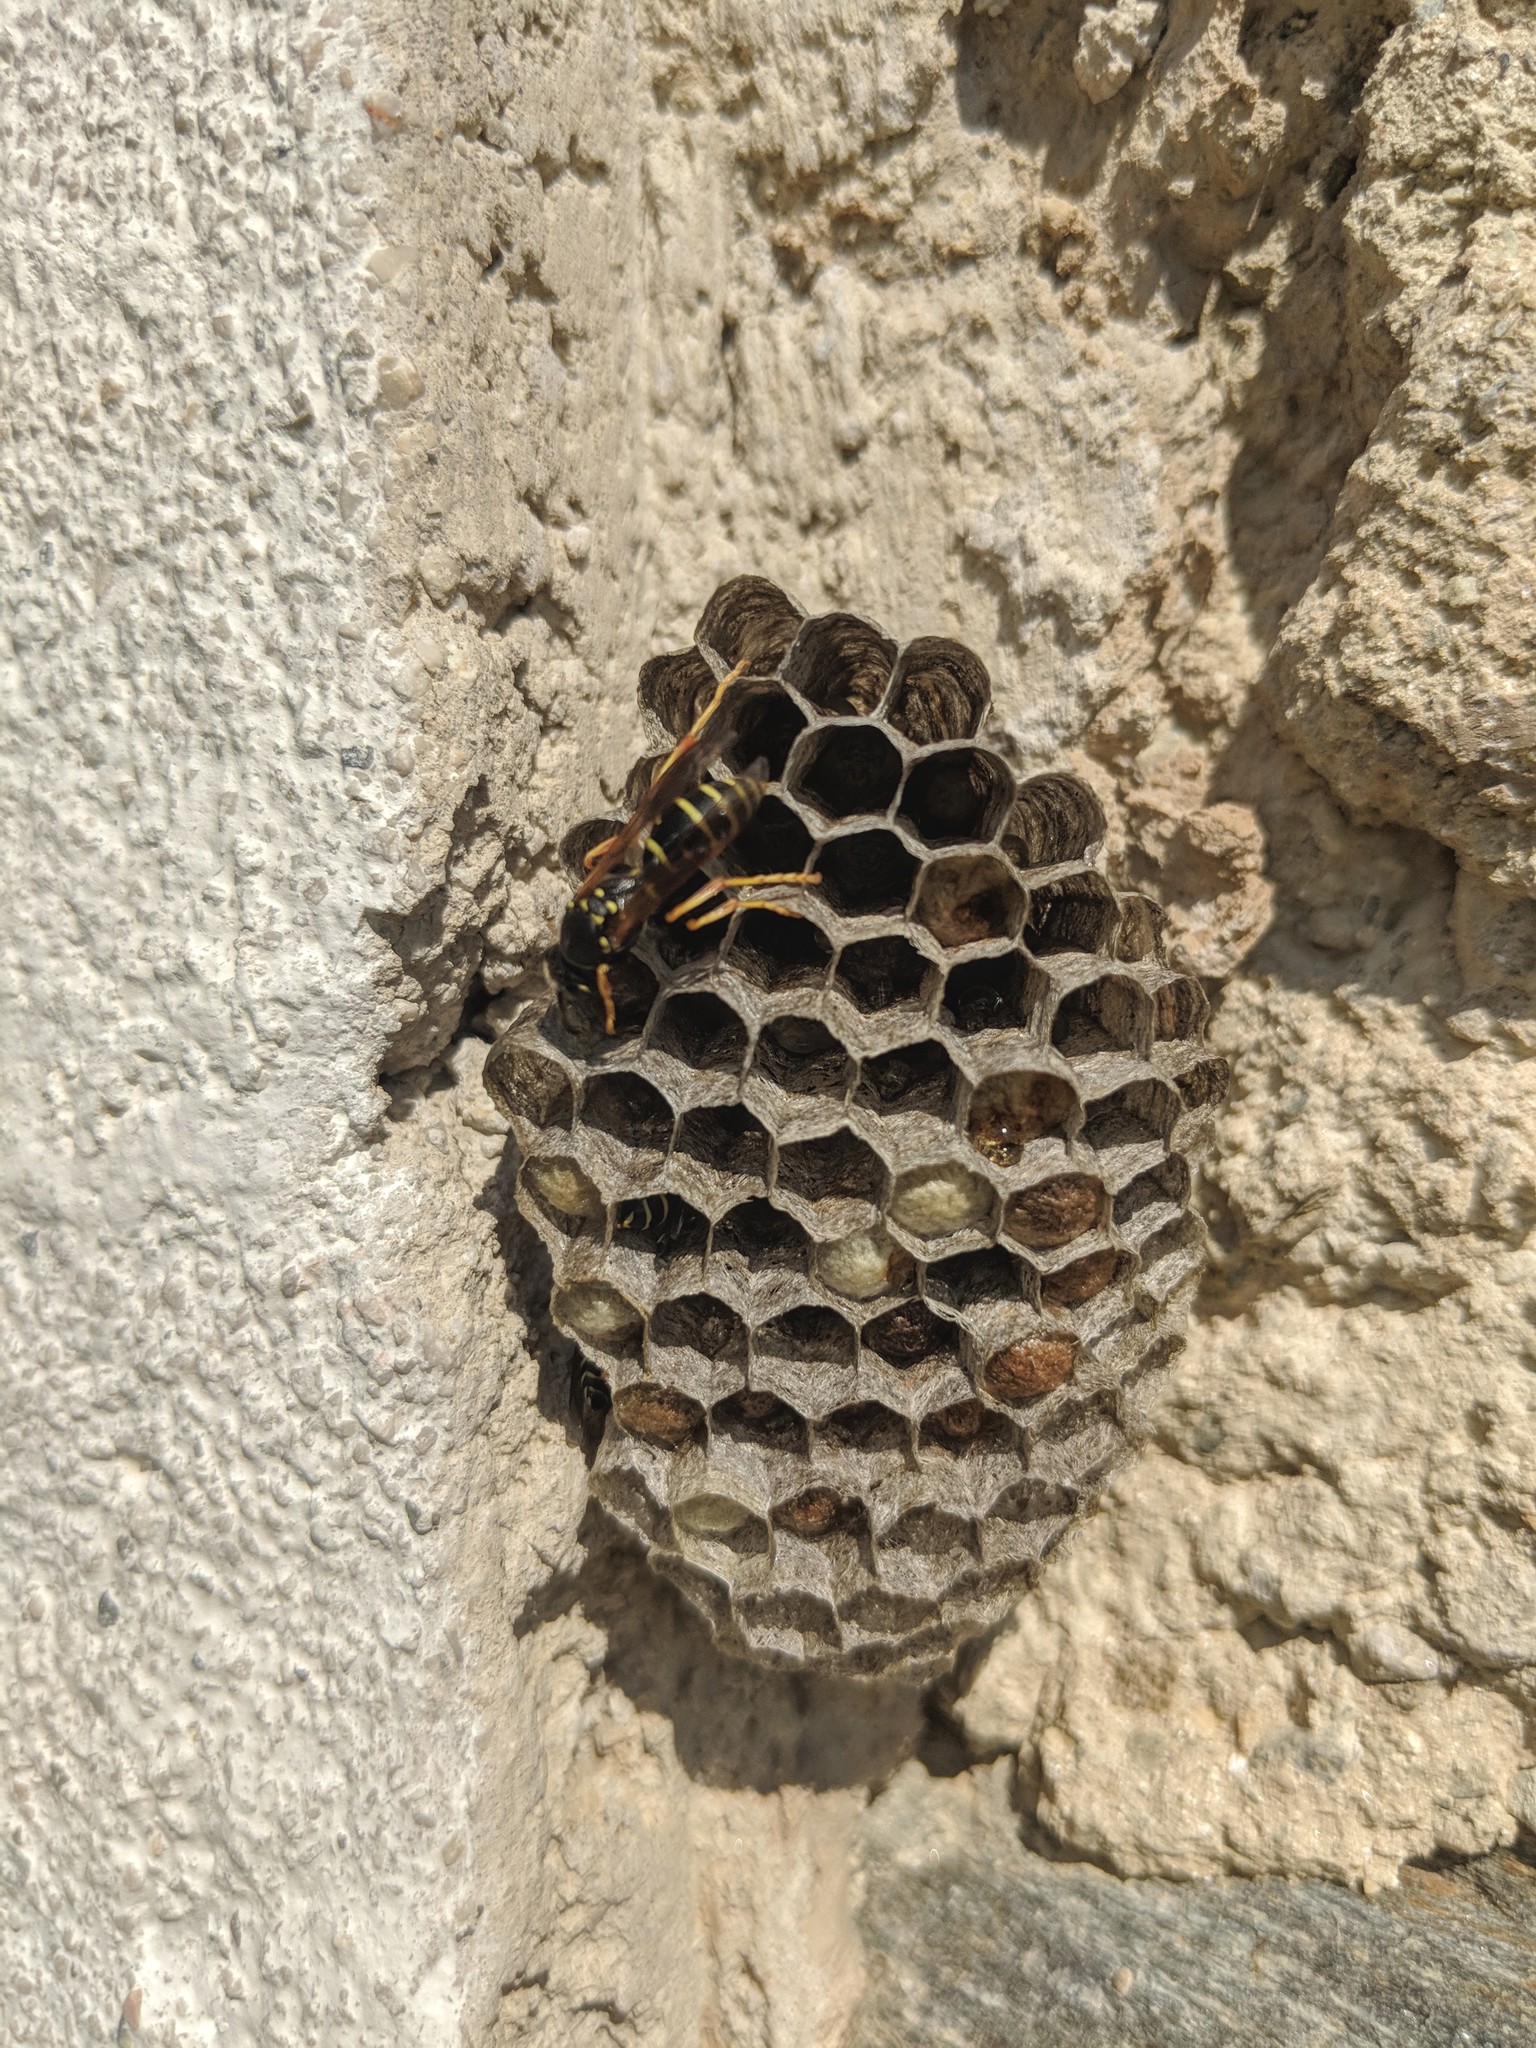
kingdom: Animalia
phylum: Arthropoda
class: Insecta
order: Hymenoptera
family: Eumenidae
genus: Polistes
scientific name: Polistes biglumis
